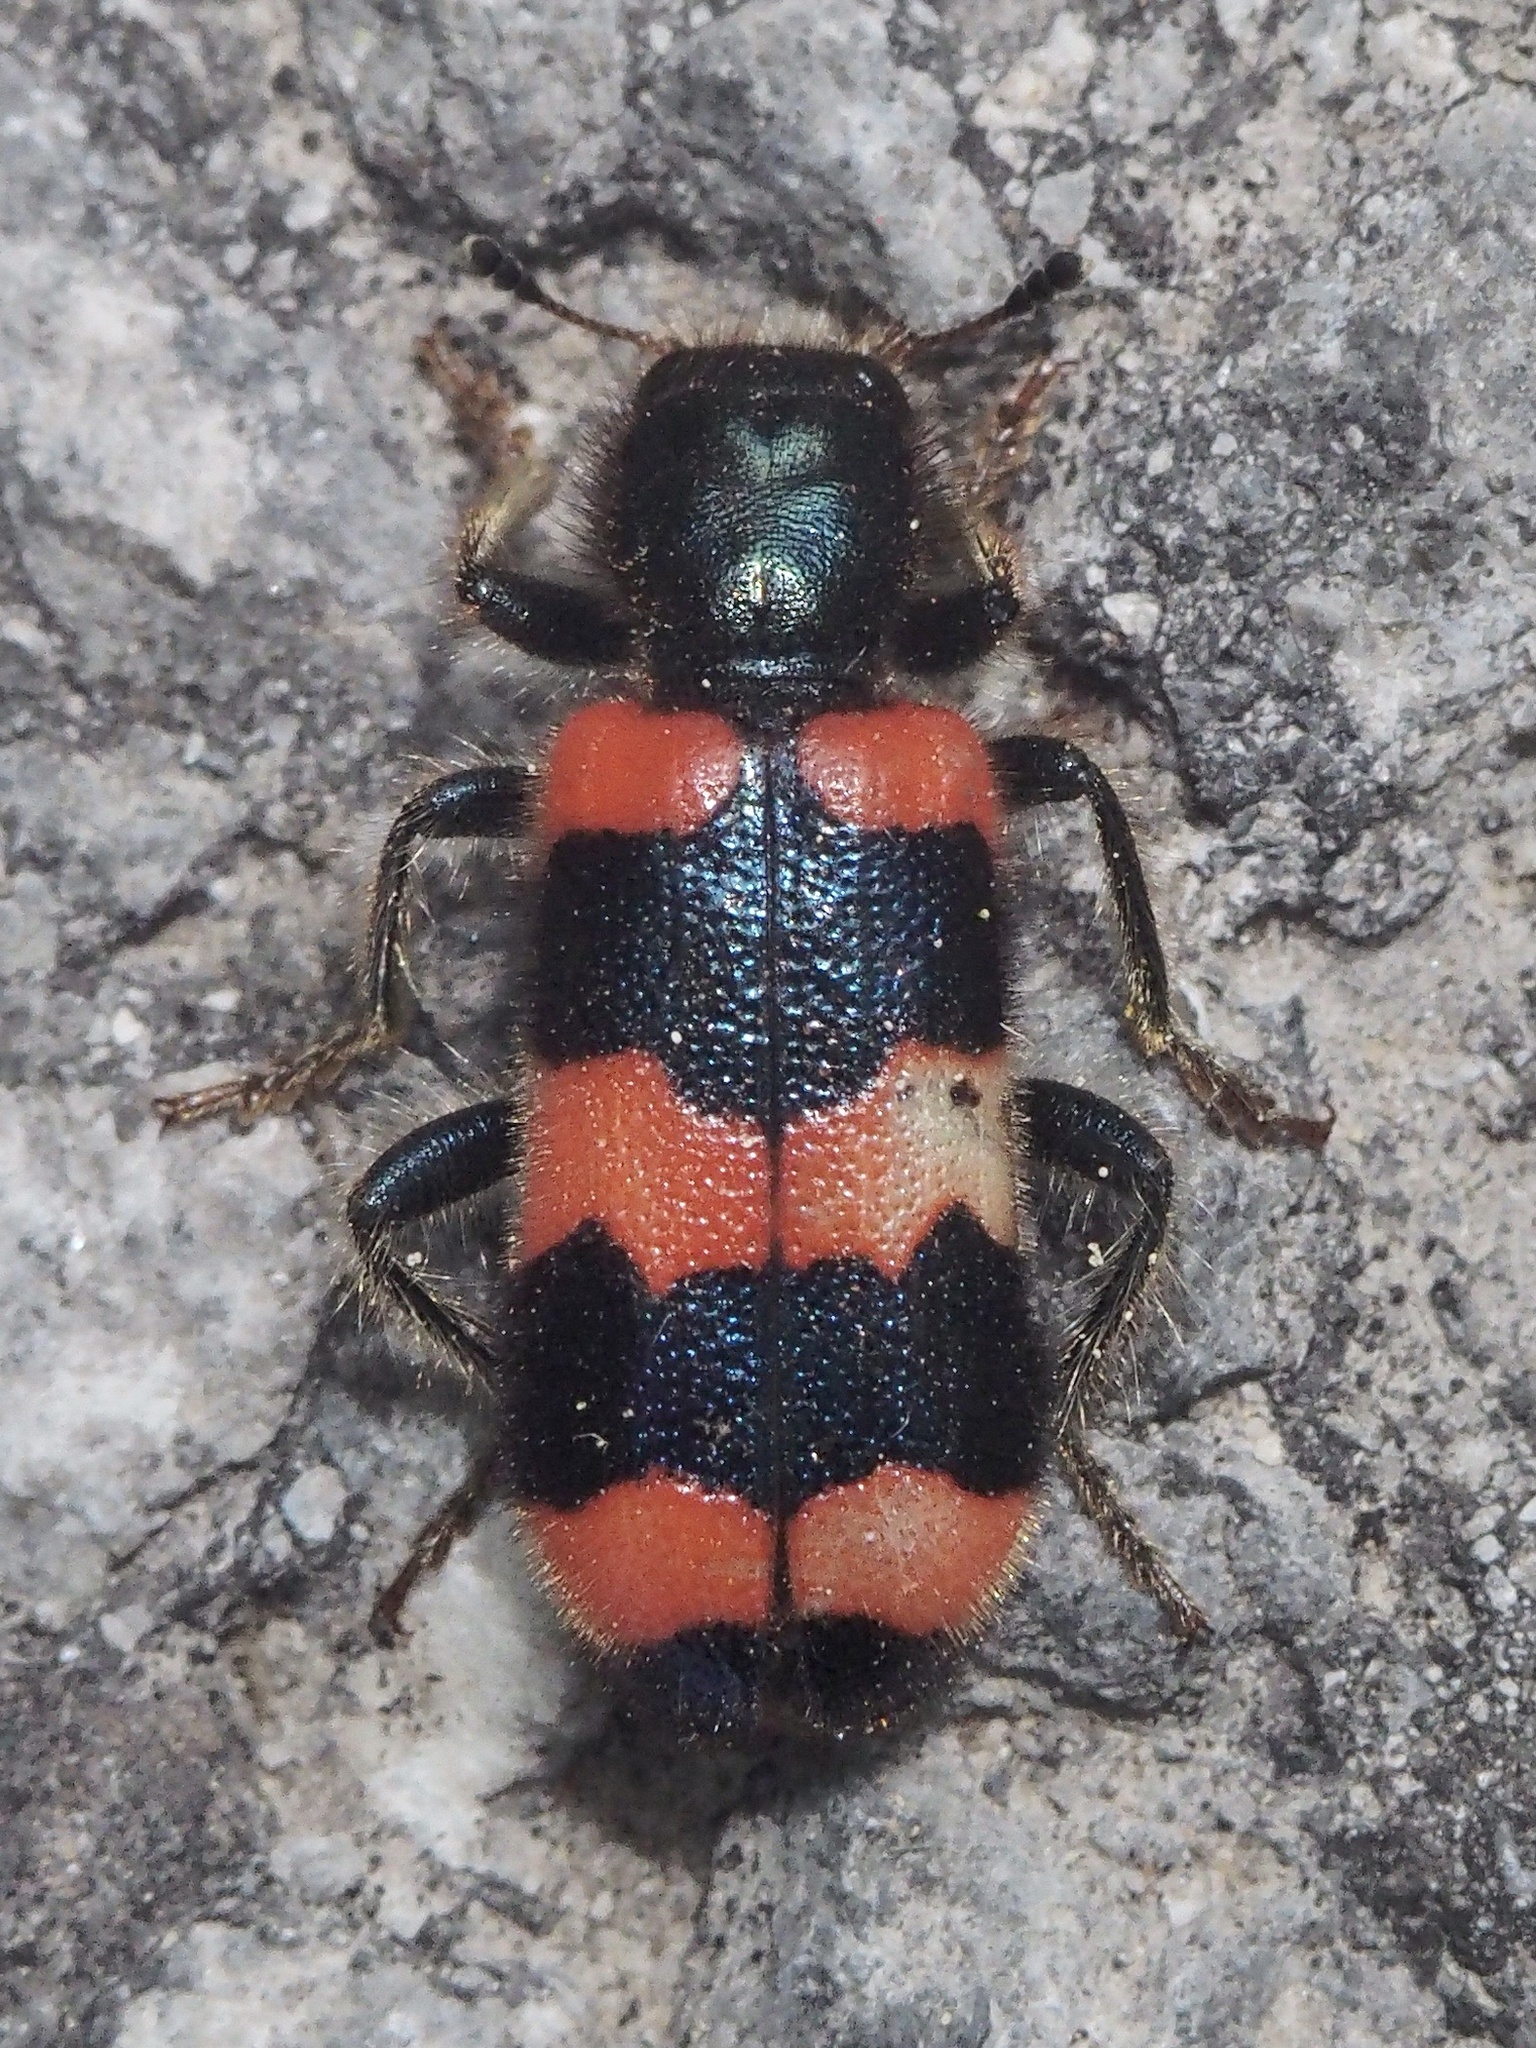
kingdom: Animalia
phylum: Arthropoda
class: Insecta
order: Coleoptera
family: Cleridae
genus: Trichodes
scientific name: Trichodes apiarius
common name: Bee-eating beetle
